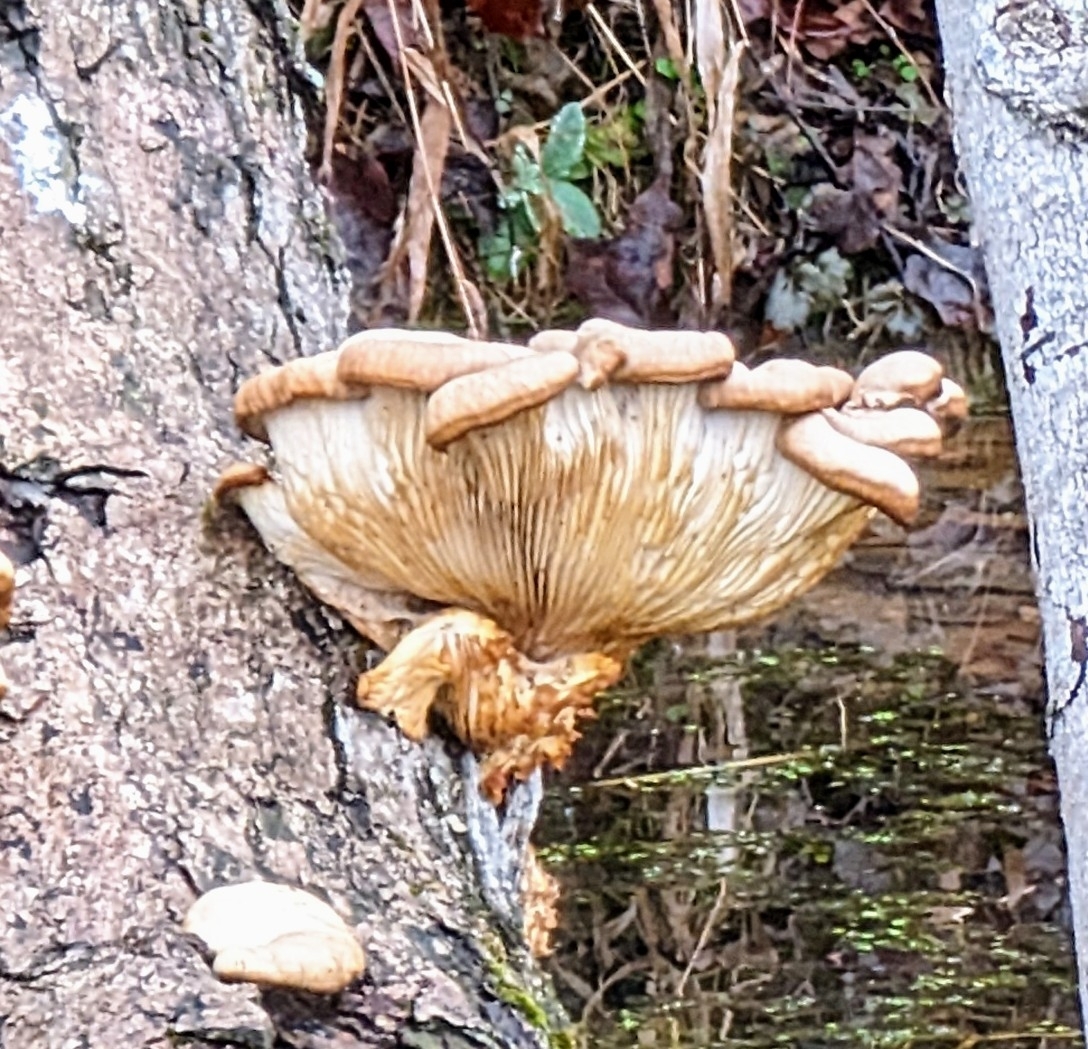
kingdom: Fungi
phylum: Basidiomycota
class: Agaricomycetes
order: Agaricales
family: Pleurotaceae
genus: Pleurotus
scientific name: Pleurotus ostreatus
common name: Oyster mushroom
